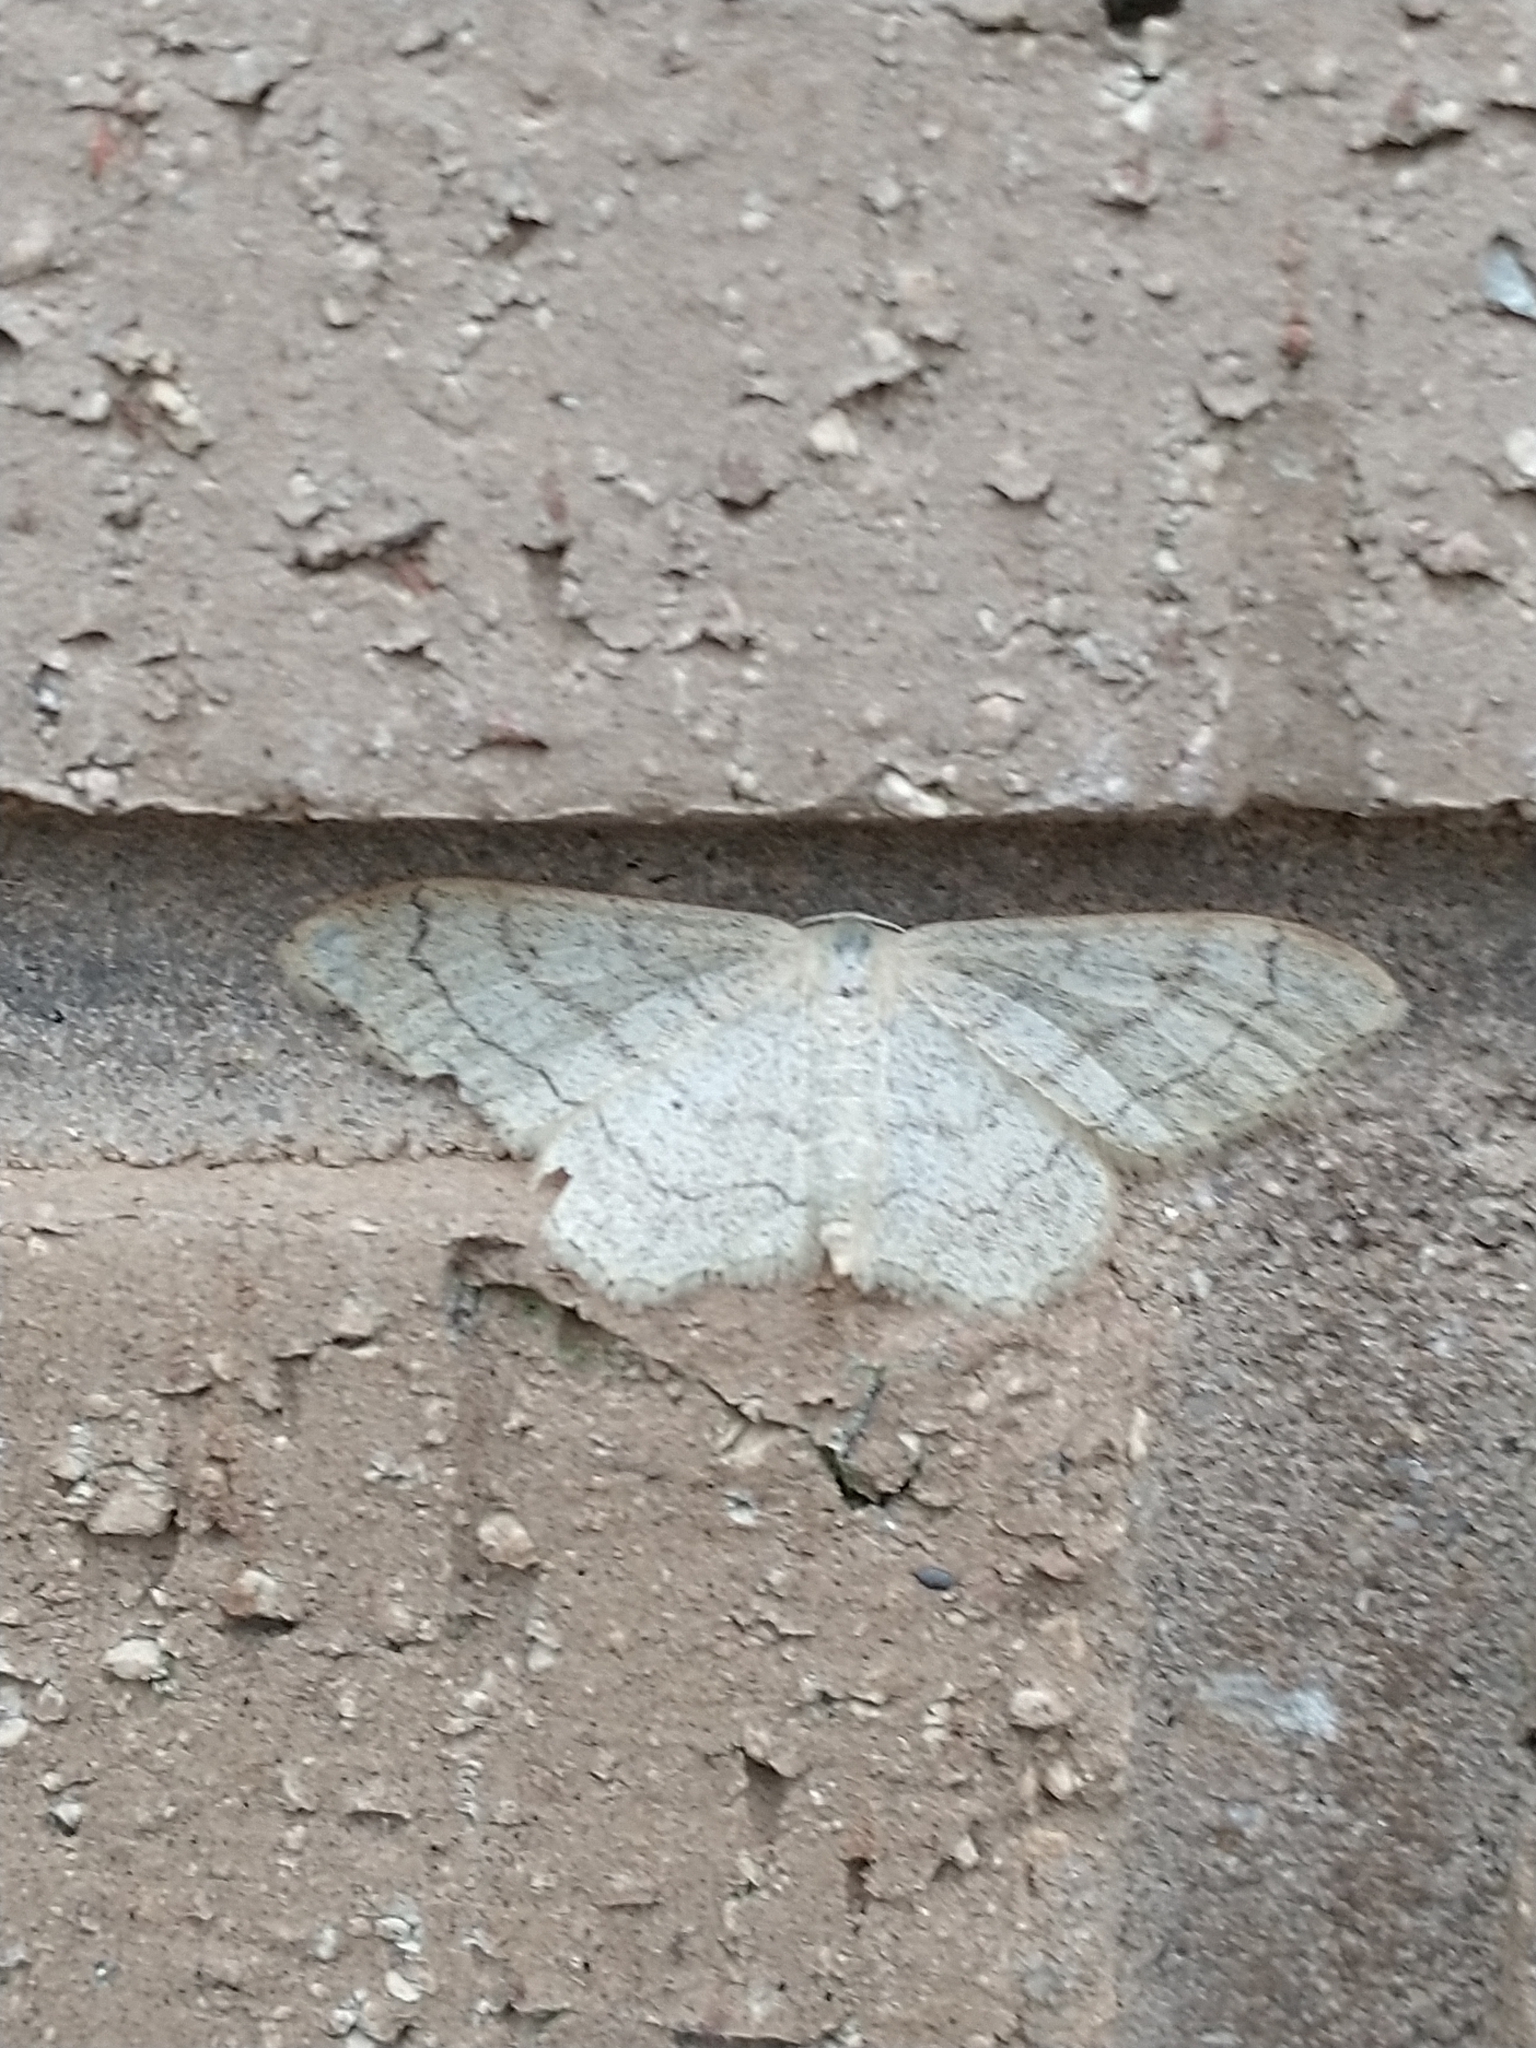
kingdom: Animalia
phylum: Arthropoda
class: Insecta
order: Lepidoptera
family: Geometridae
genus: Idaea
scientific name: Idaea aversata
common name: Riband wave
